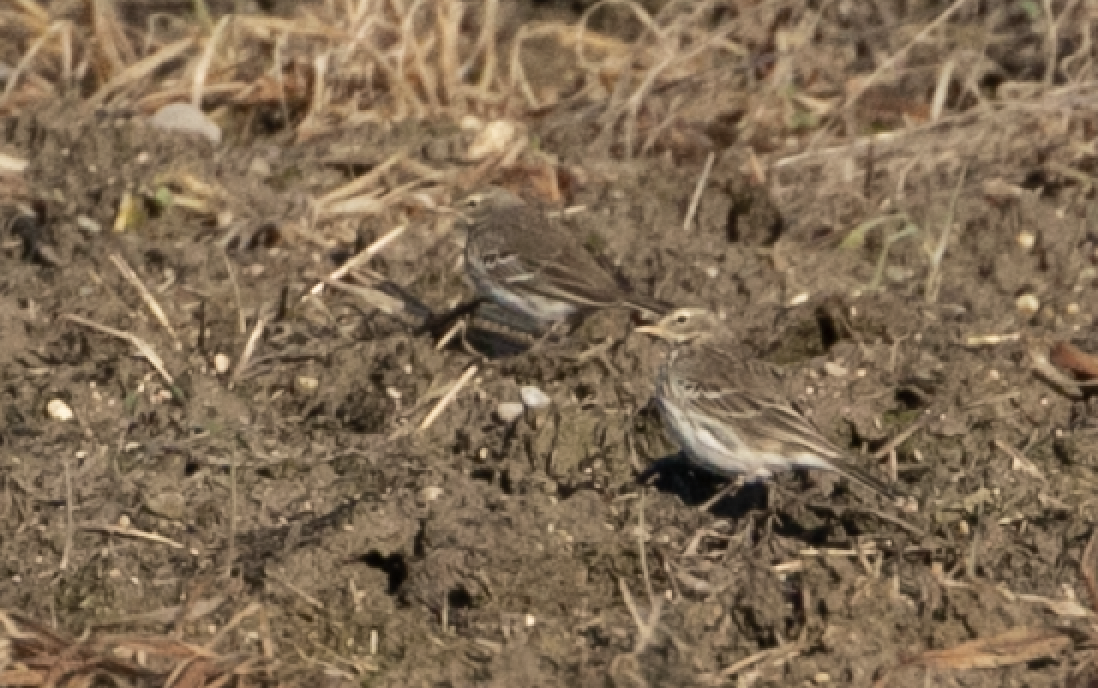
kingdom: Animalia
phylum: Chordata
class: Aves
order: Passeriformes
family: Motacillidae
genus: Anthus
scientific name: Anthus spinoletta
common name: Water pipit
